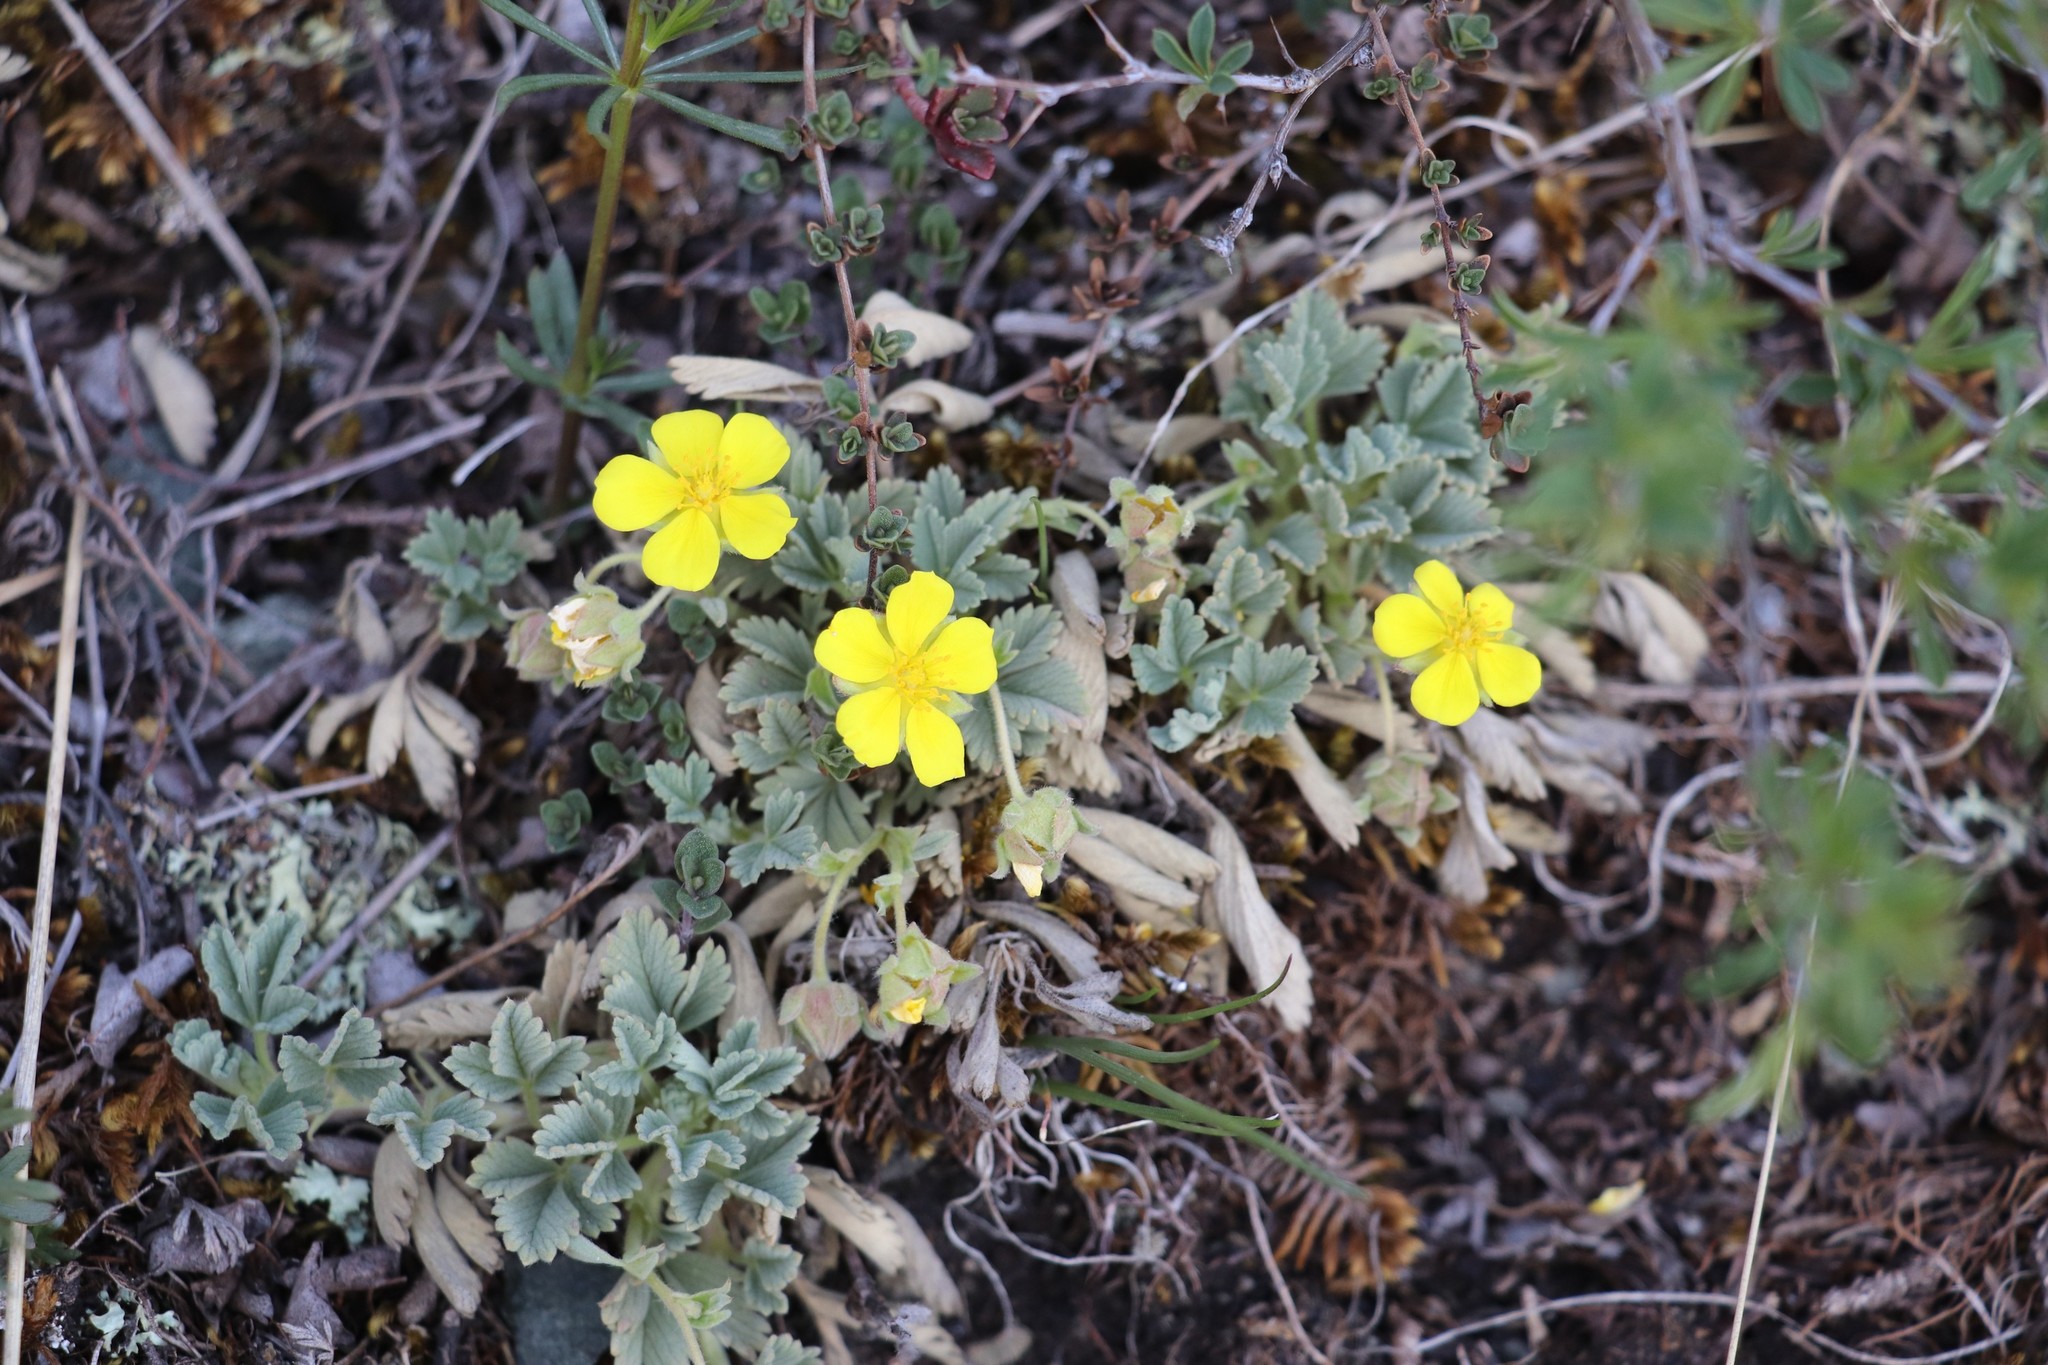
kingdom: Plantae
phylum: Tracheophyta
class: Magnoliopsida
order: Rosales
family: Rosaceae
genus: Potentilla
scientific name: Potentilla acaulis
